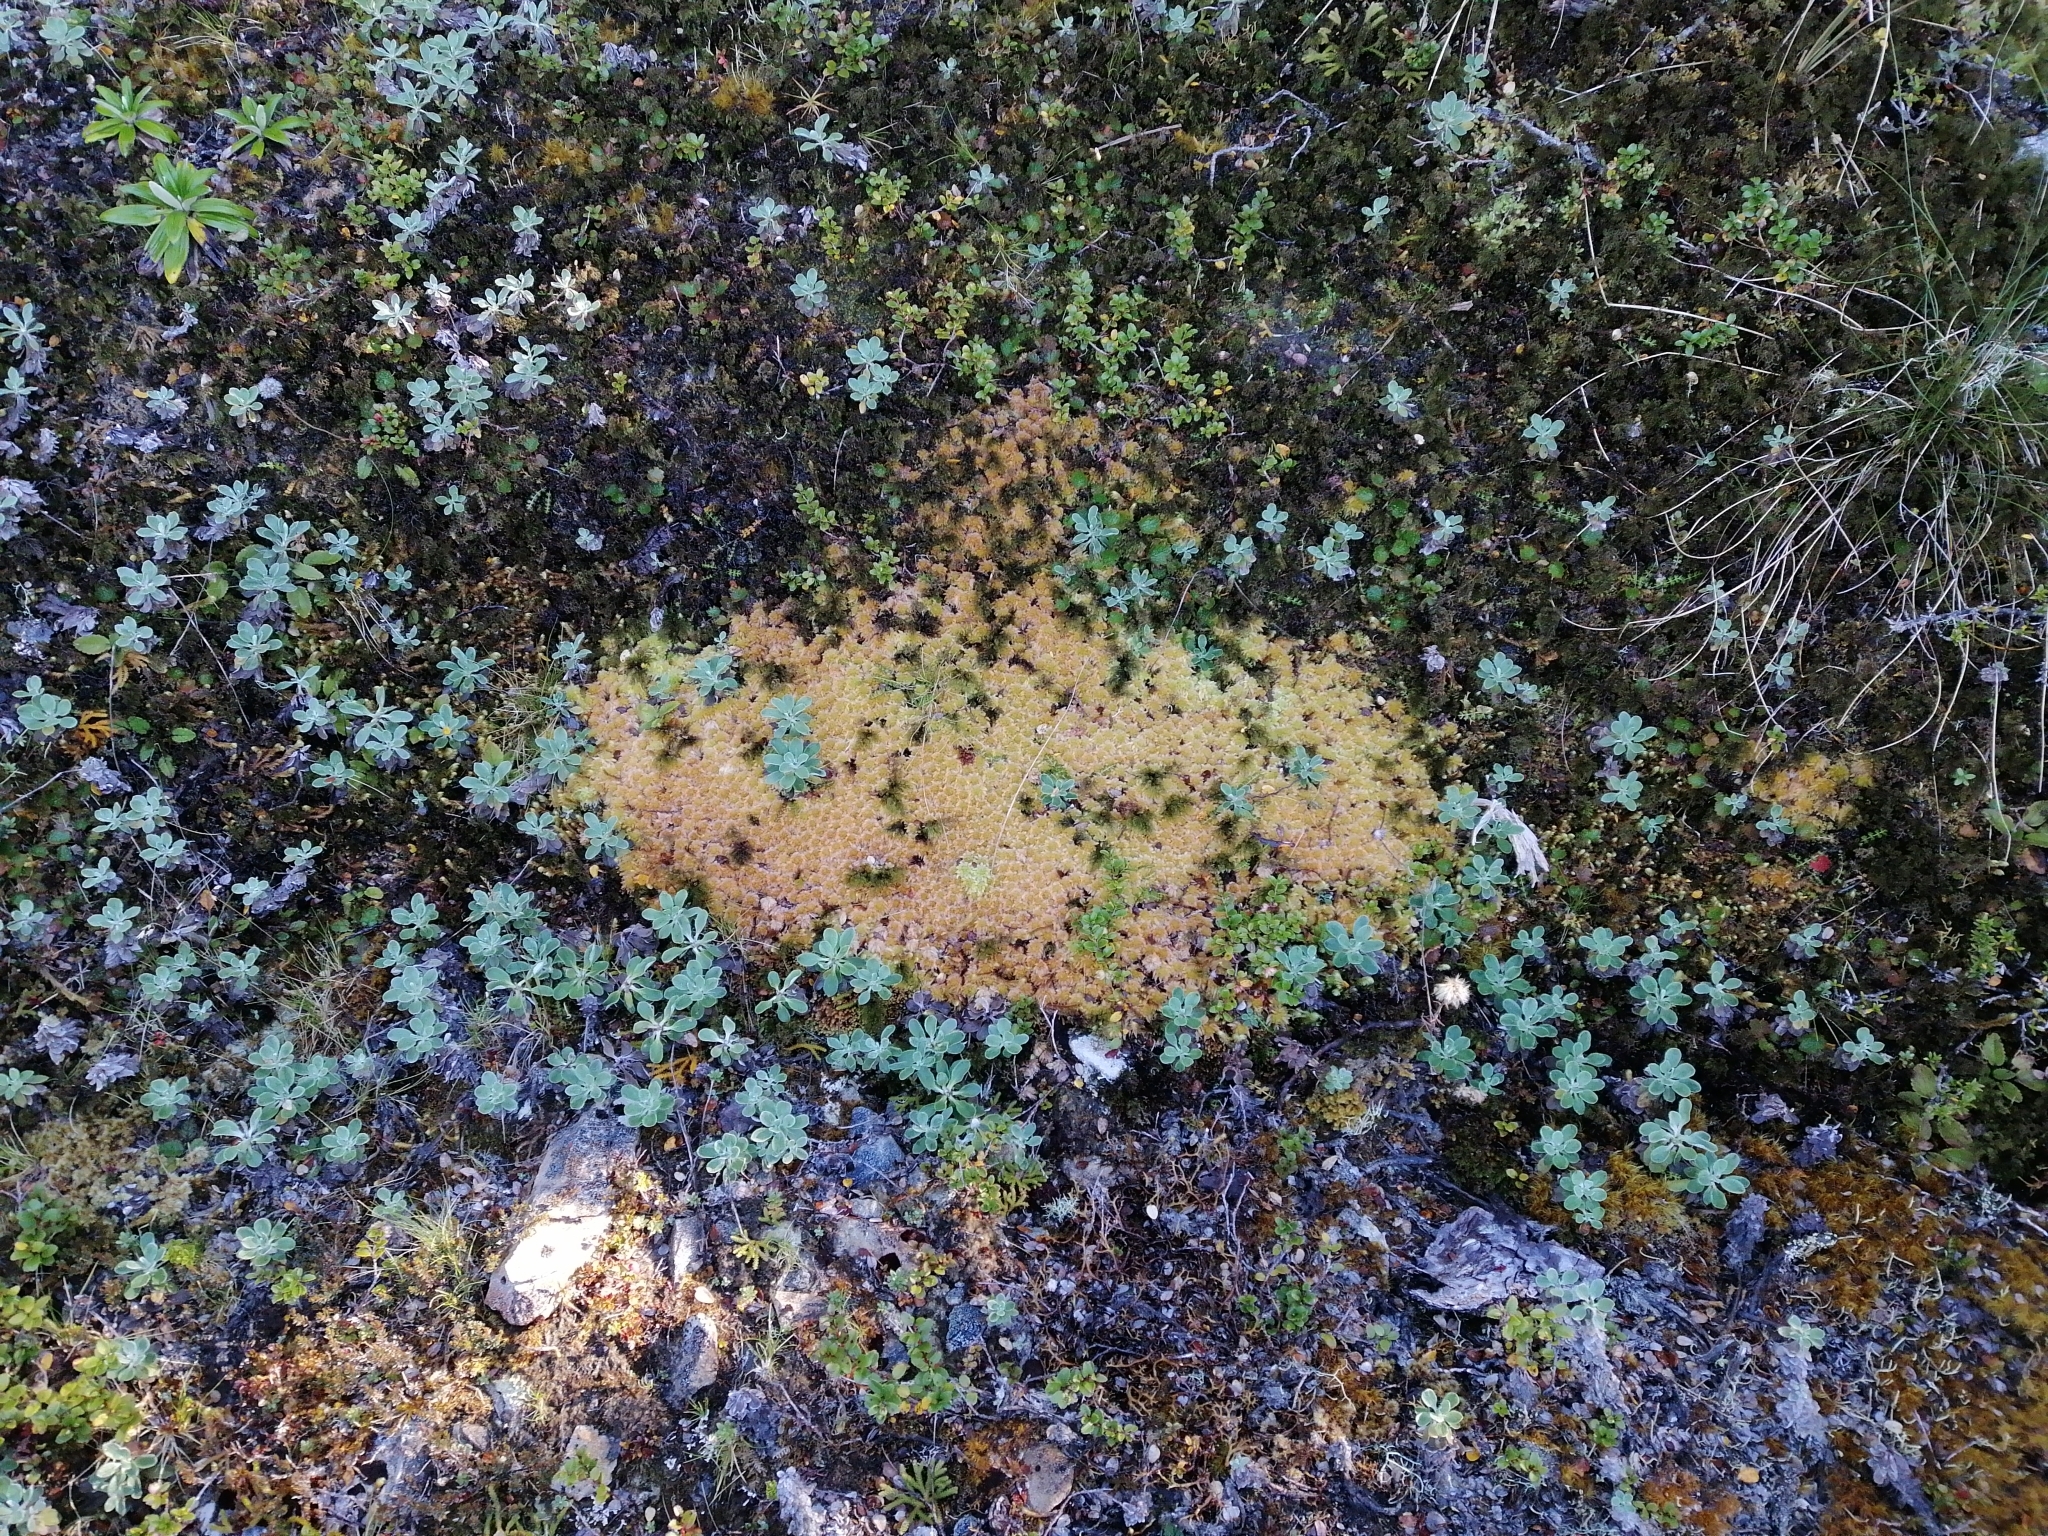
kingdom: Plantae
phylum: Bryophyta
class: Sphagnopsida
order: Sphagnales
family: Sphagnaceae
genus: Sphagnum
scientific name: Sphagnum cristatum
